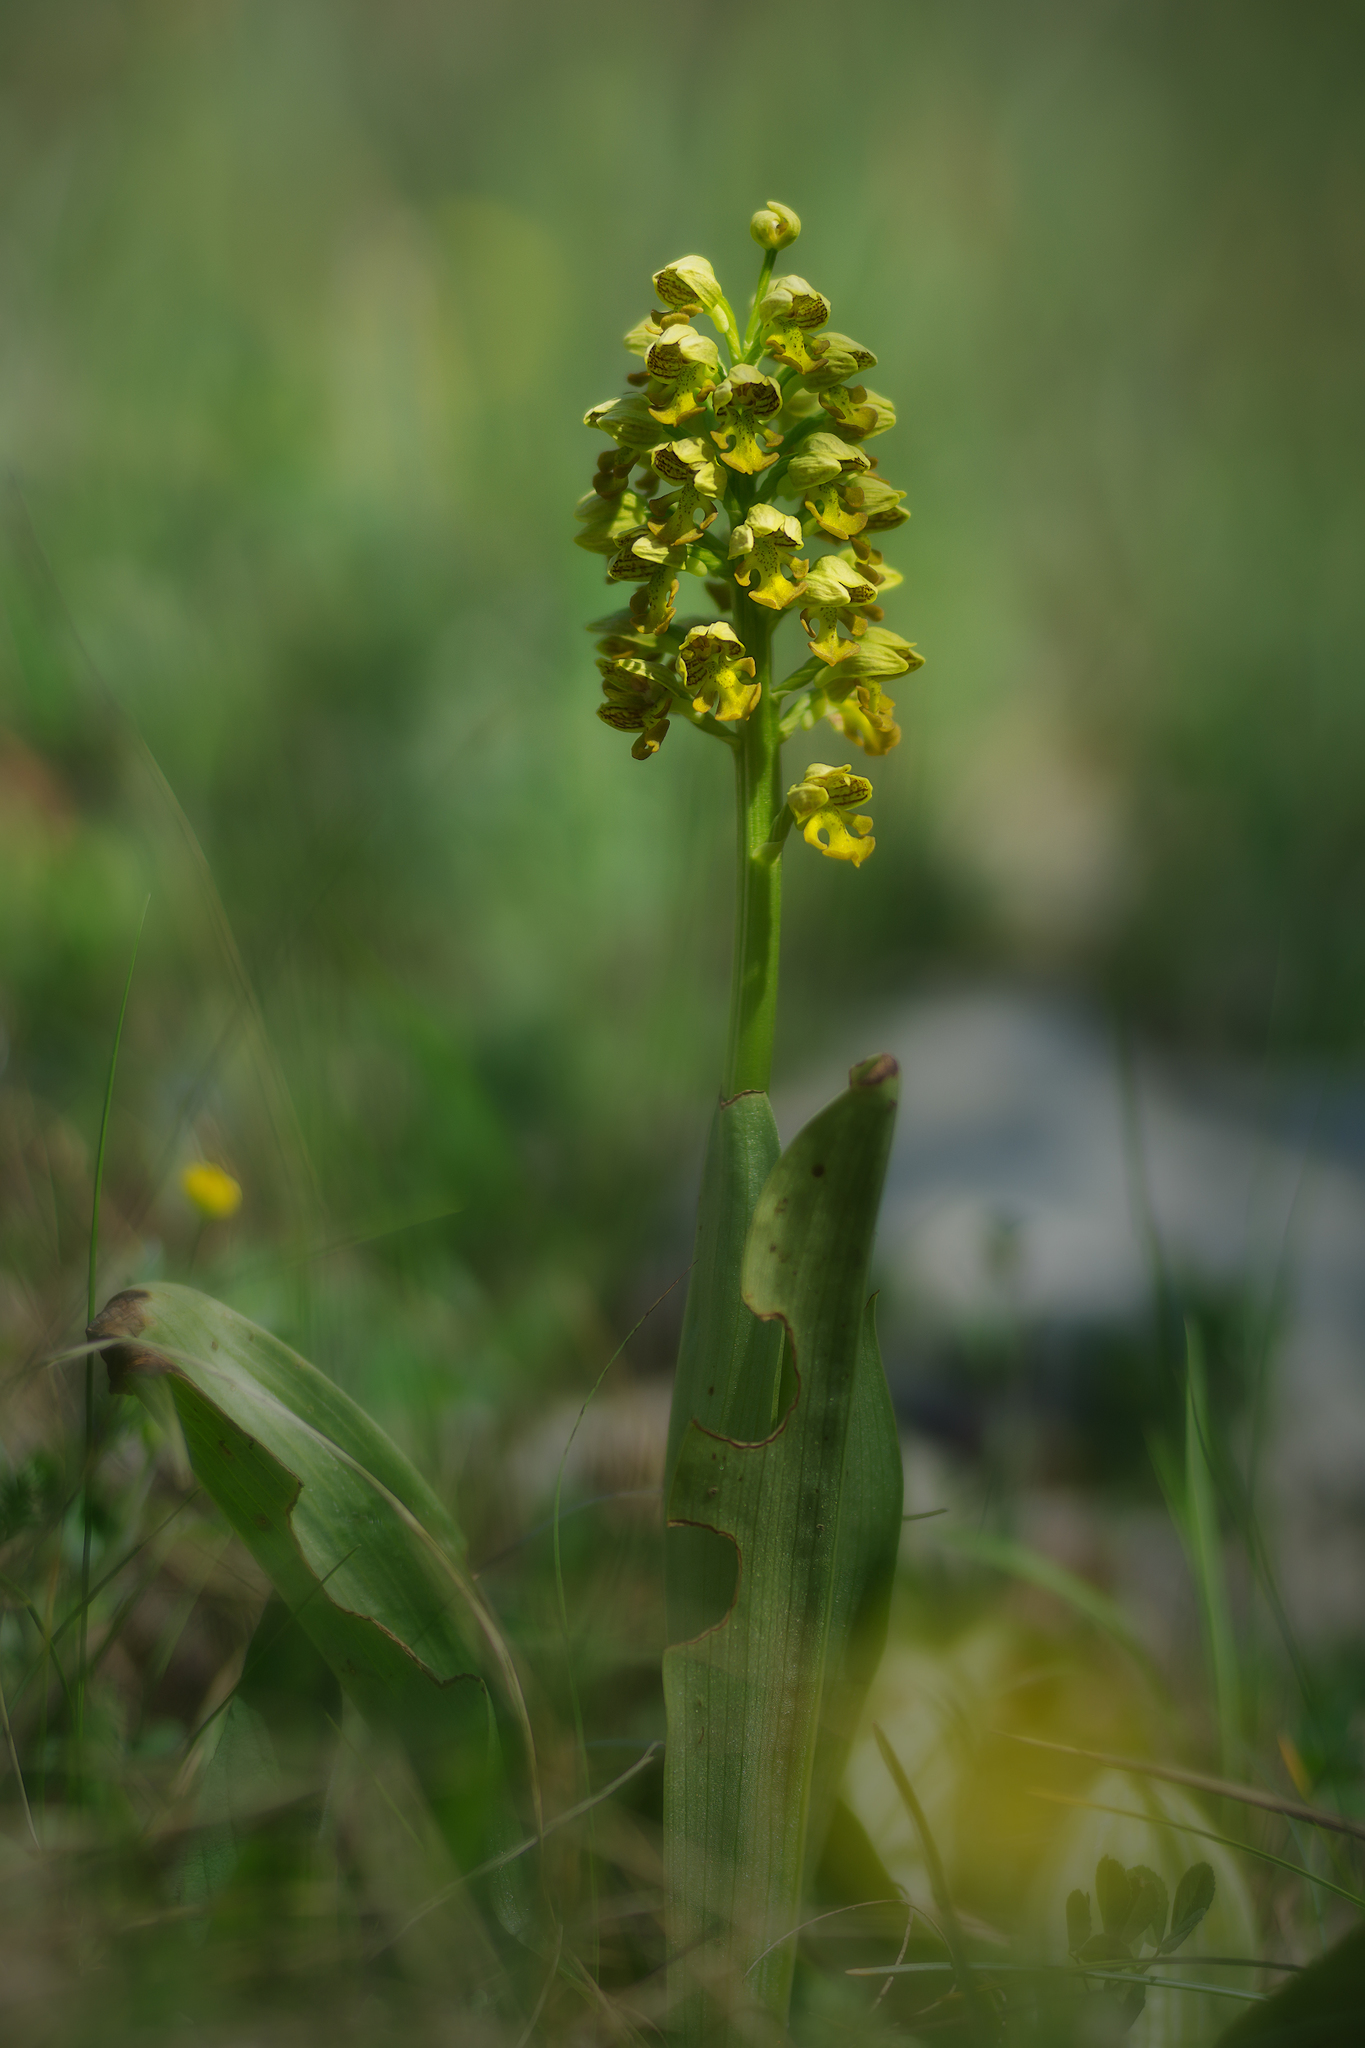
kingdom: Plantae
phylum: Tracheophyta
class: Liliopsida
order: Asparagales
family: Orchidaceae
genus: Orchis
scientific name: Orchis punctulata
